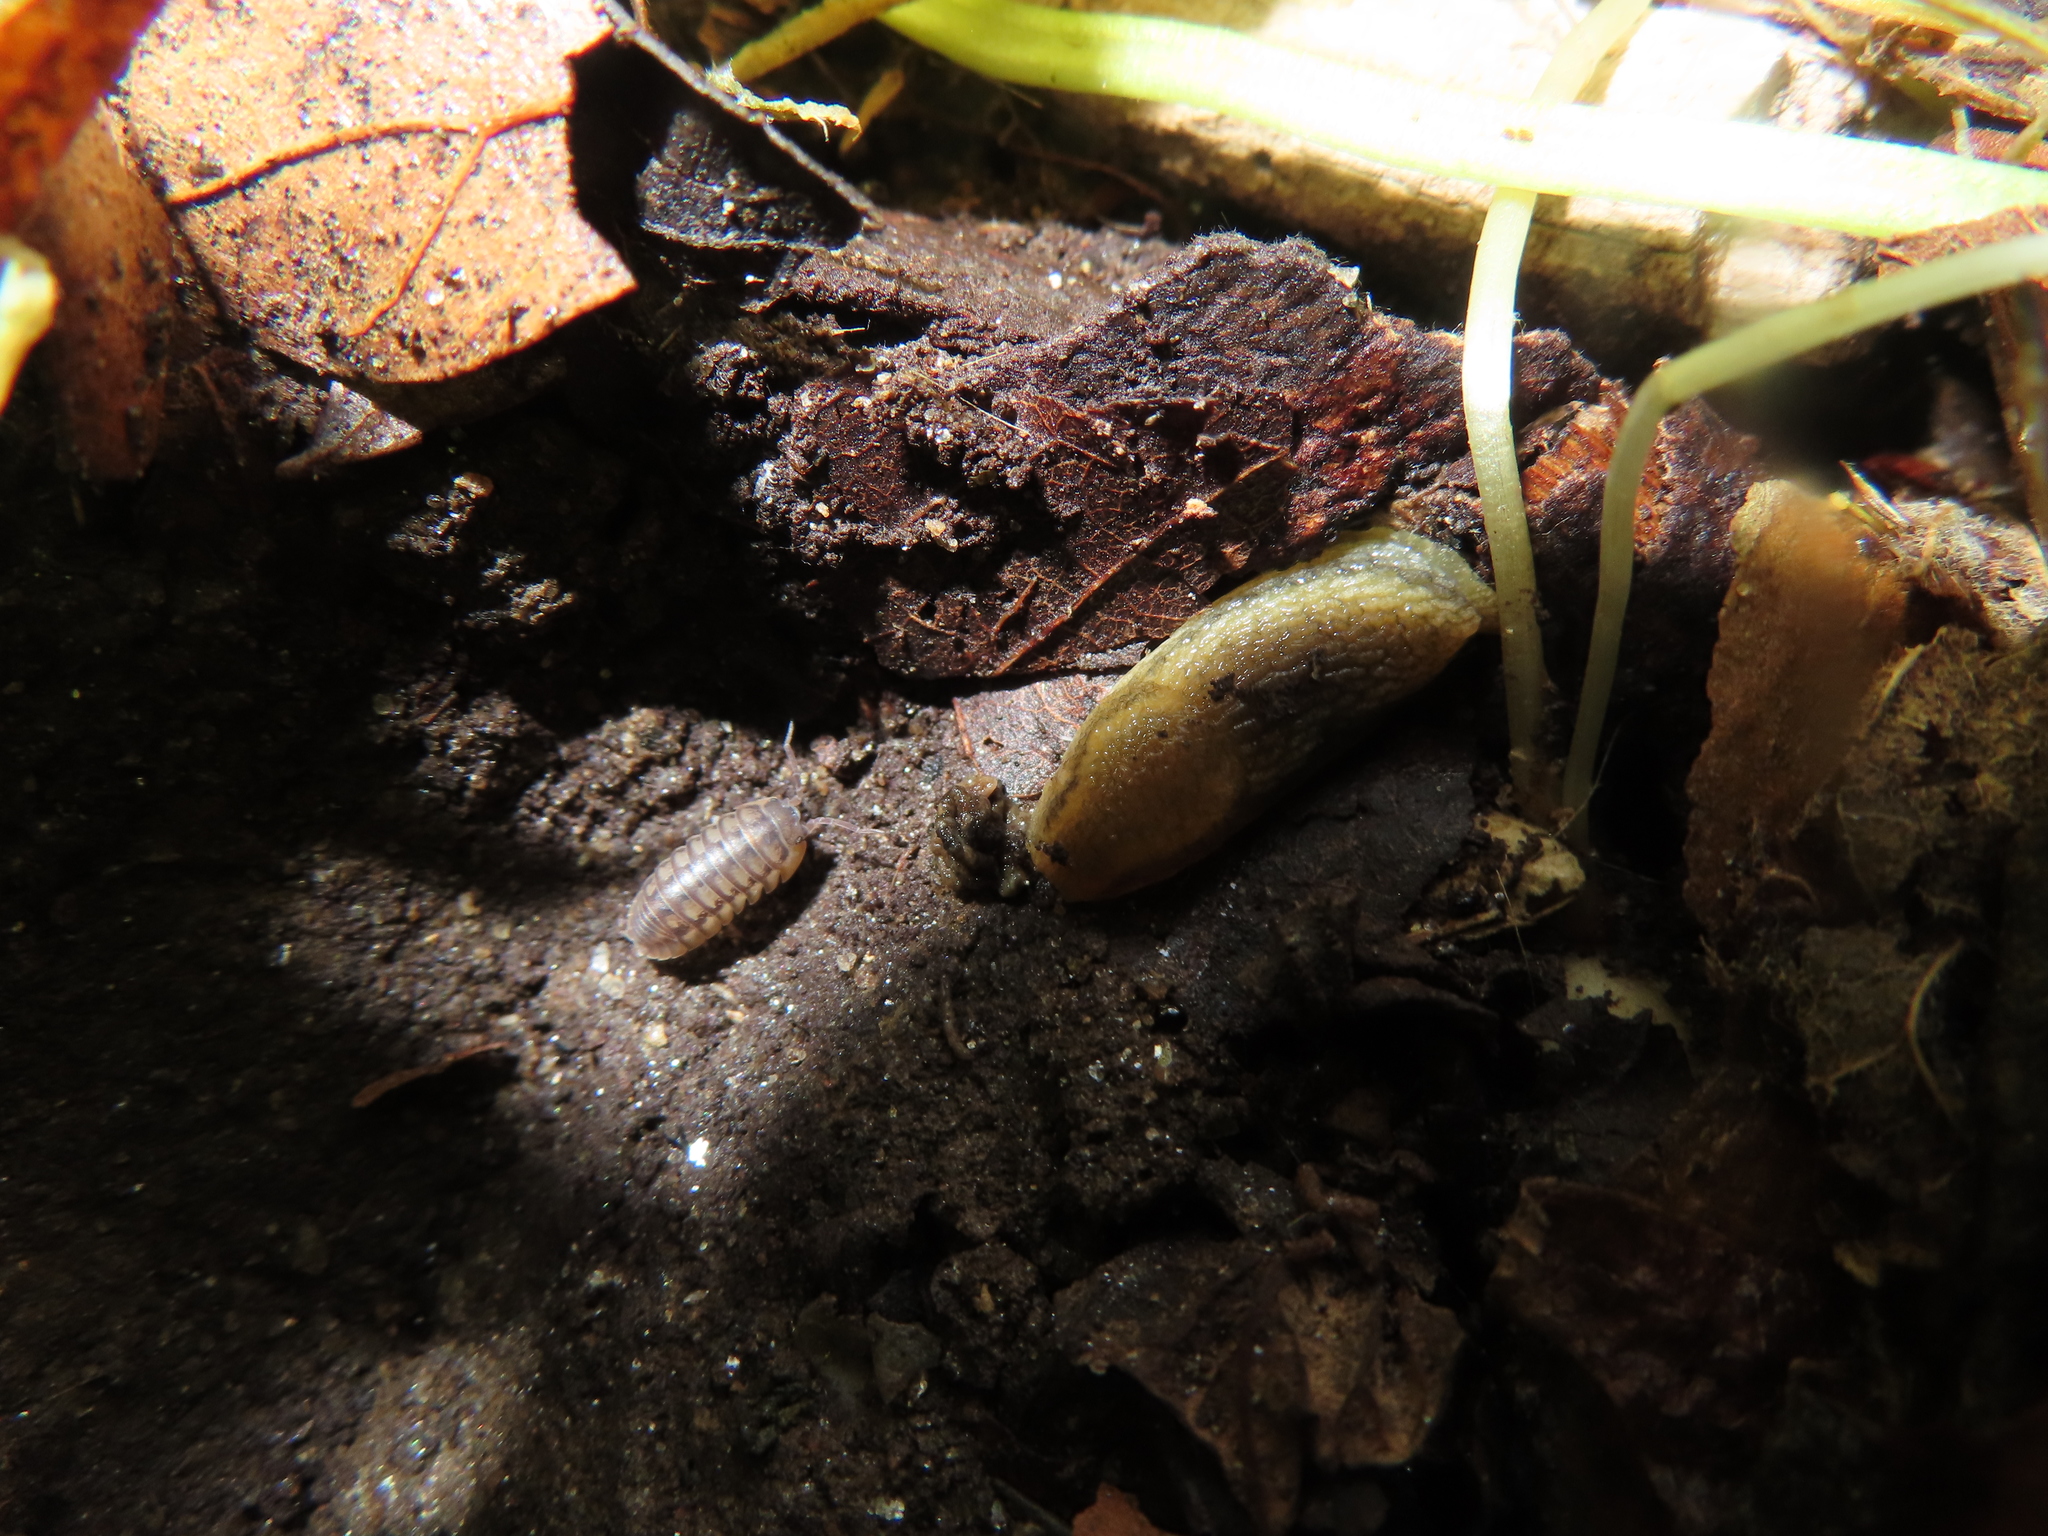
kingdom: Animalia
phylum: Arthropoda
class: Malacostraca
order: Isopoda
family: Armadillidiidae
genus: Armadillidium
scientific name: Armadillidium nasatum
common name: Isopod
